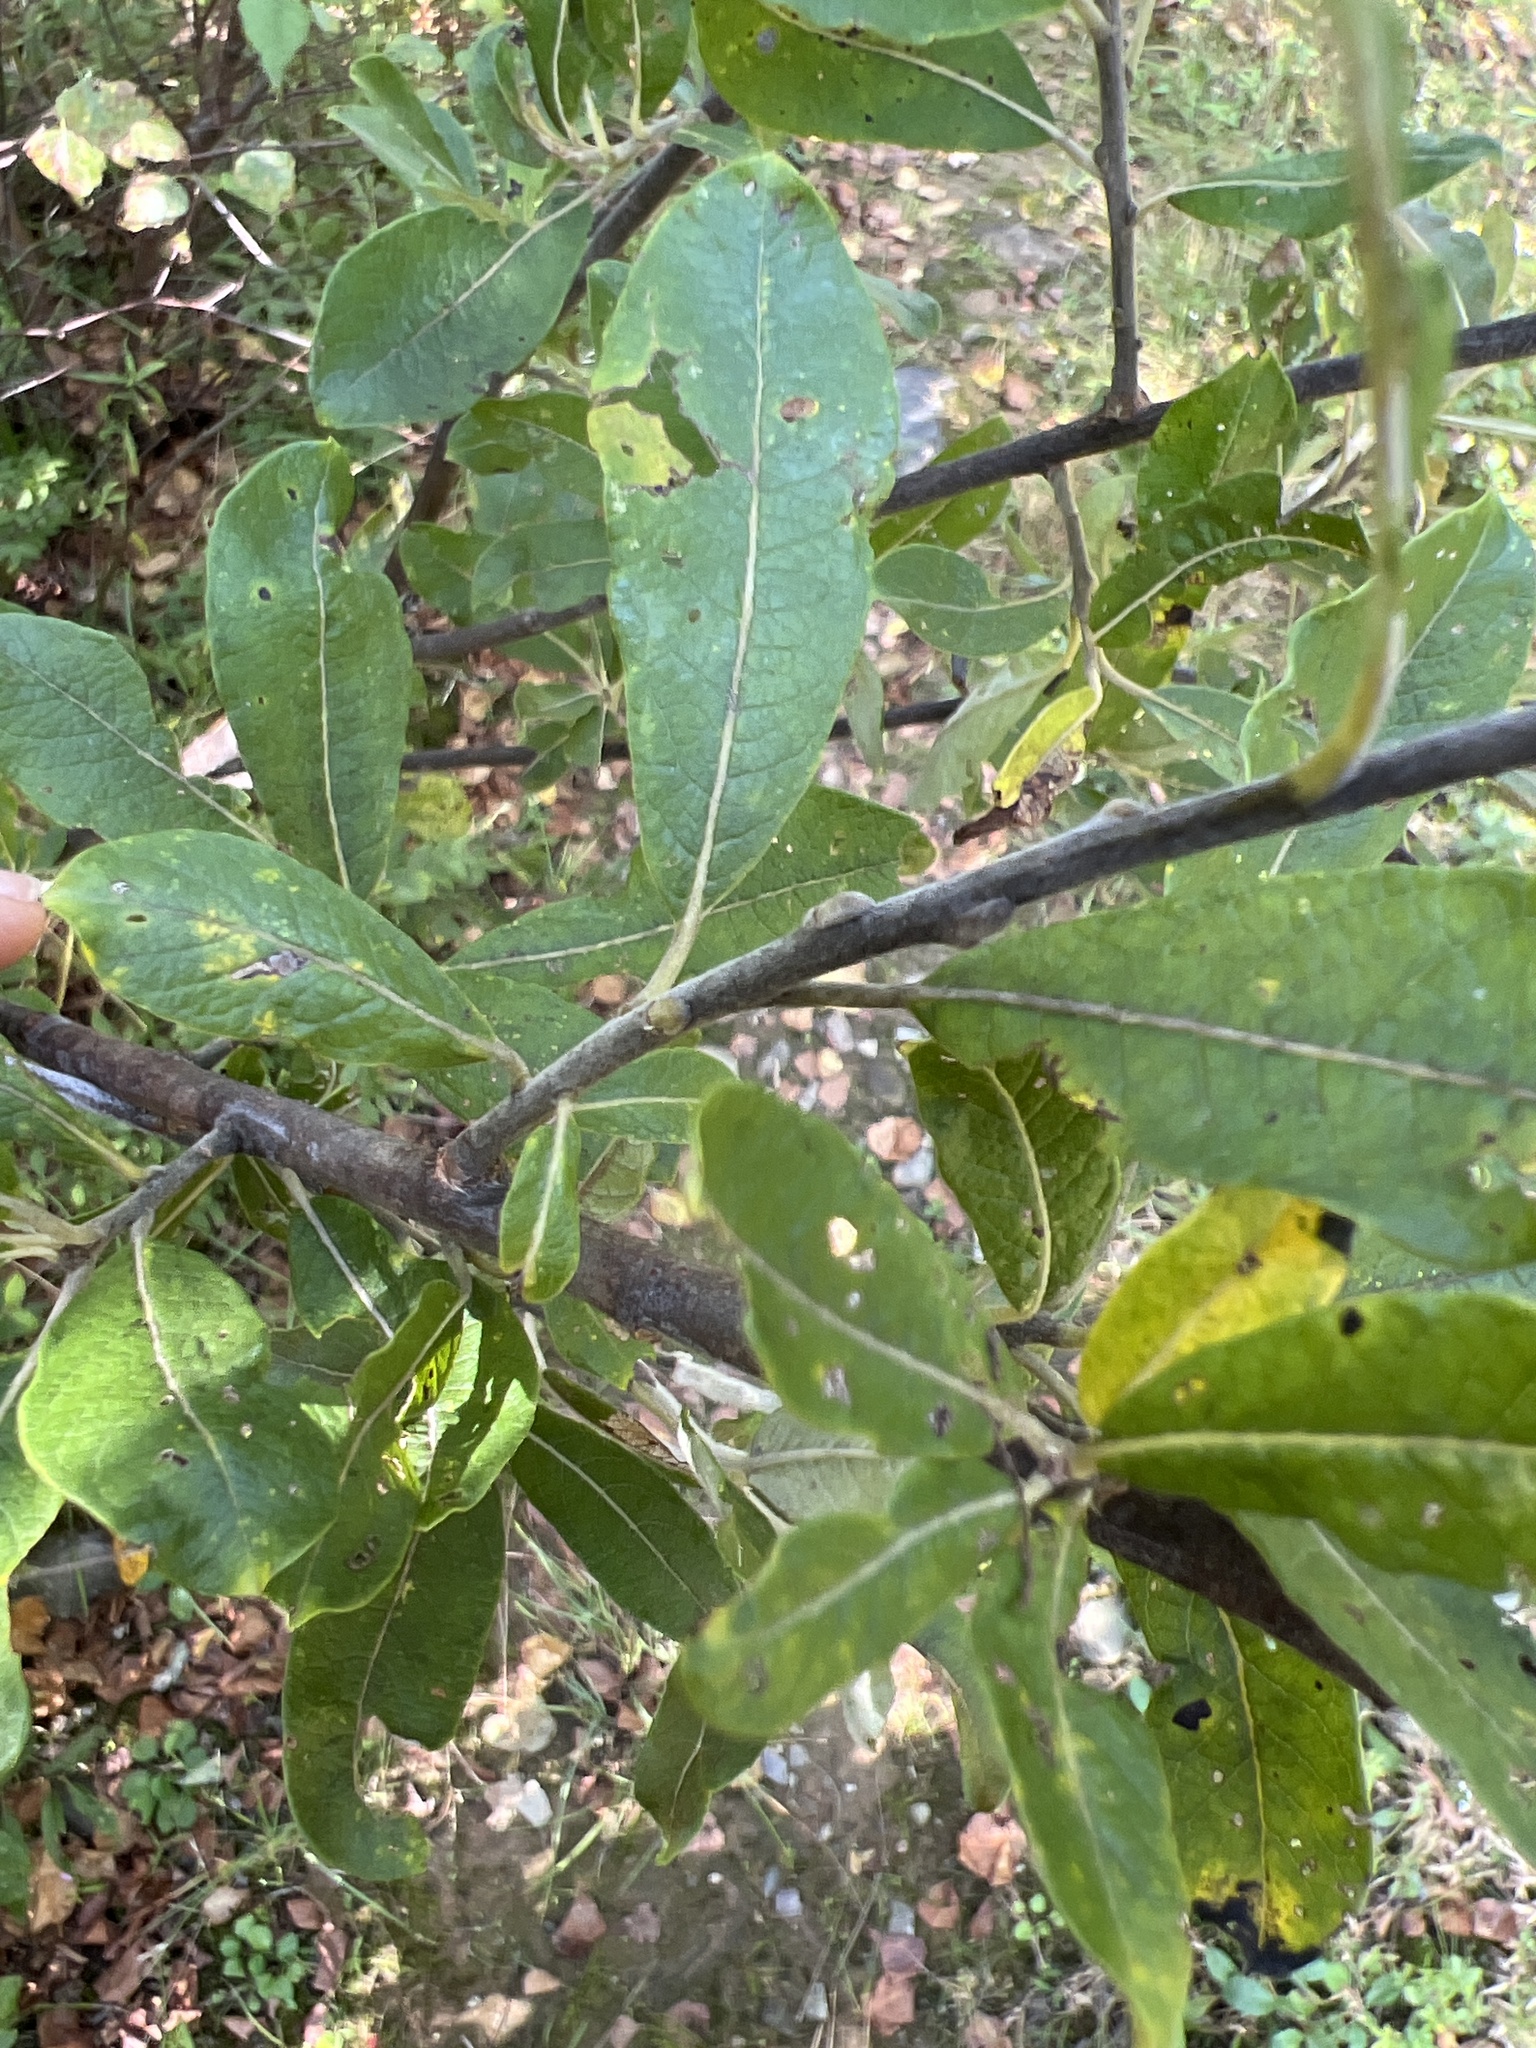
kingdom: Animalia
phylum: Arthropoda
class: Insecta
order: Diptera
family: Cecidomyiidae
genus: Rabdophaga
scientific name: Rabdophaga strobiloides
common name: Willow pinecone gall midge
